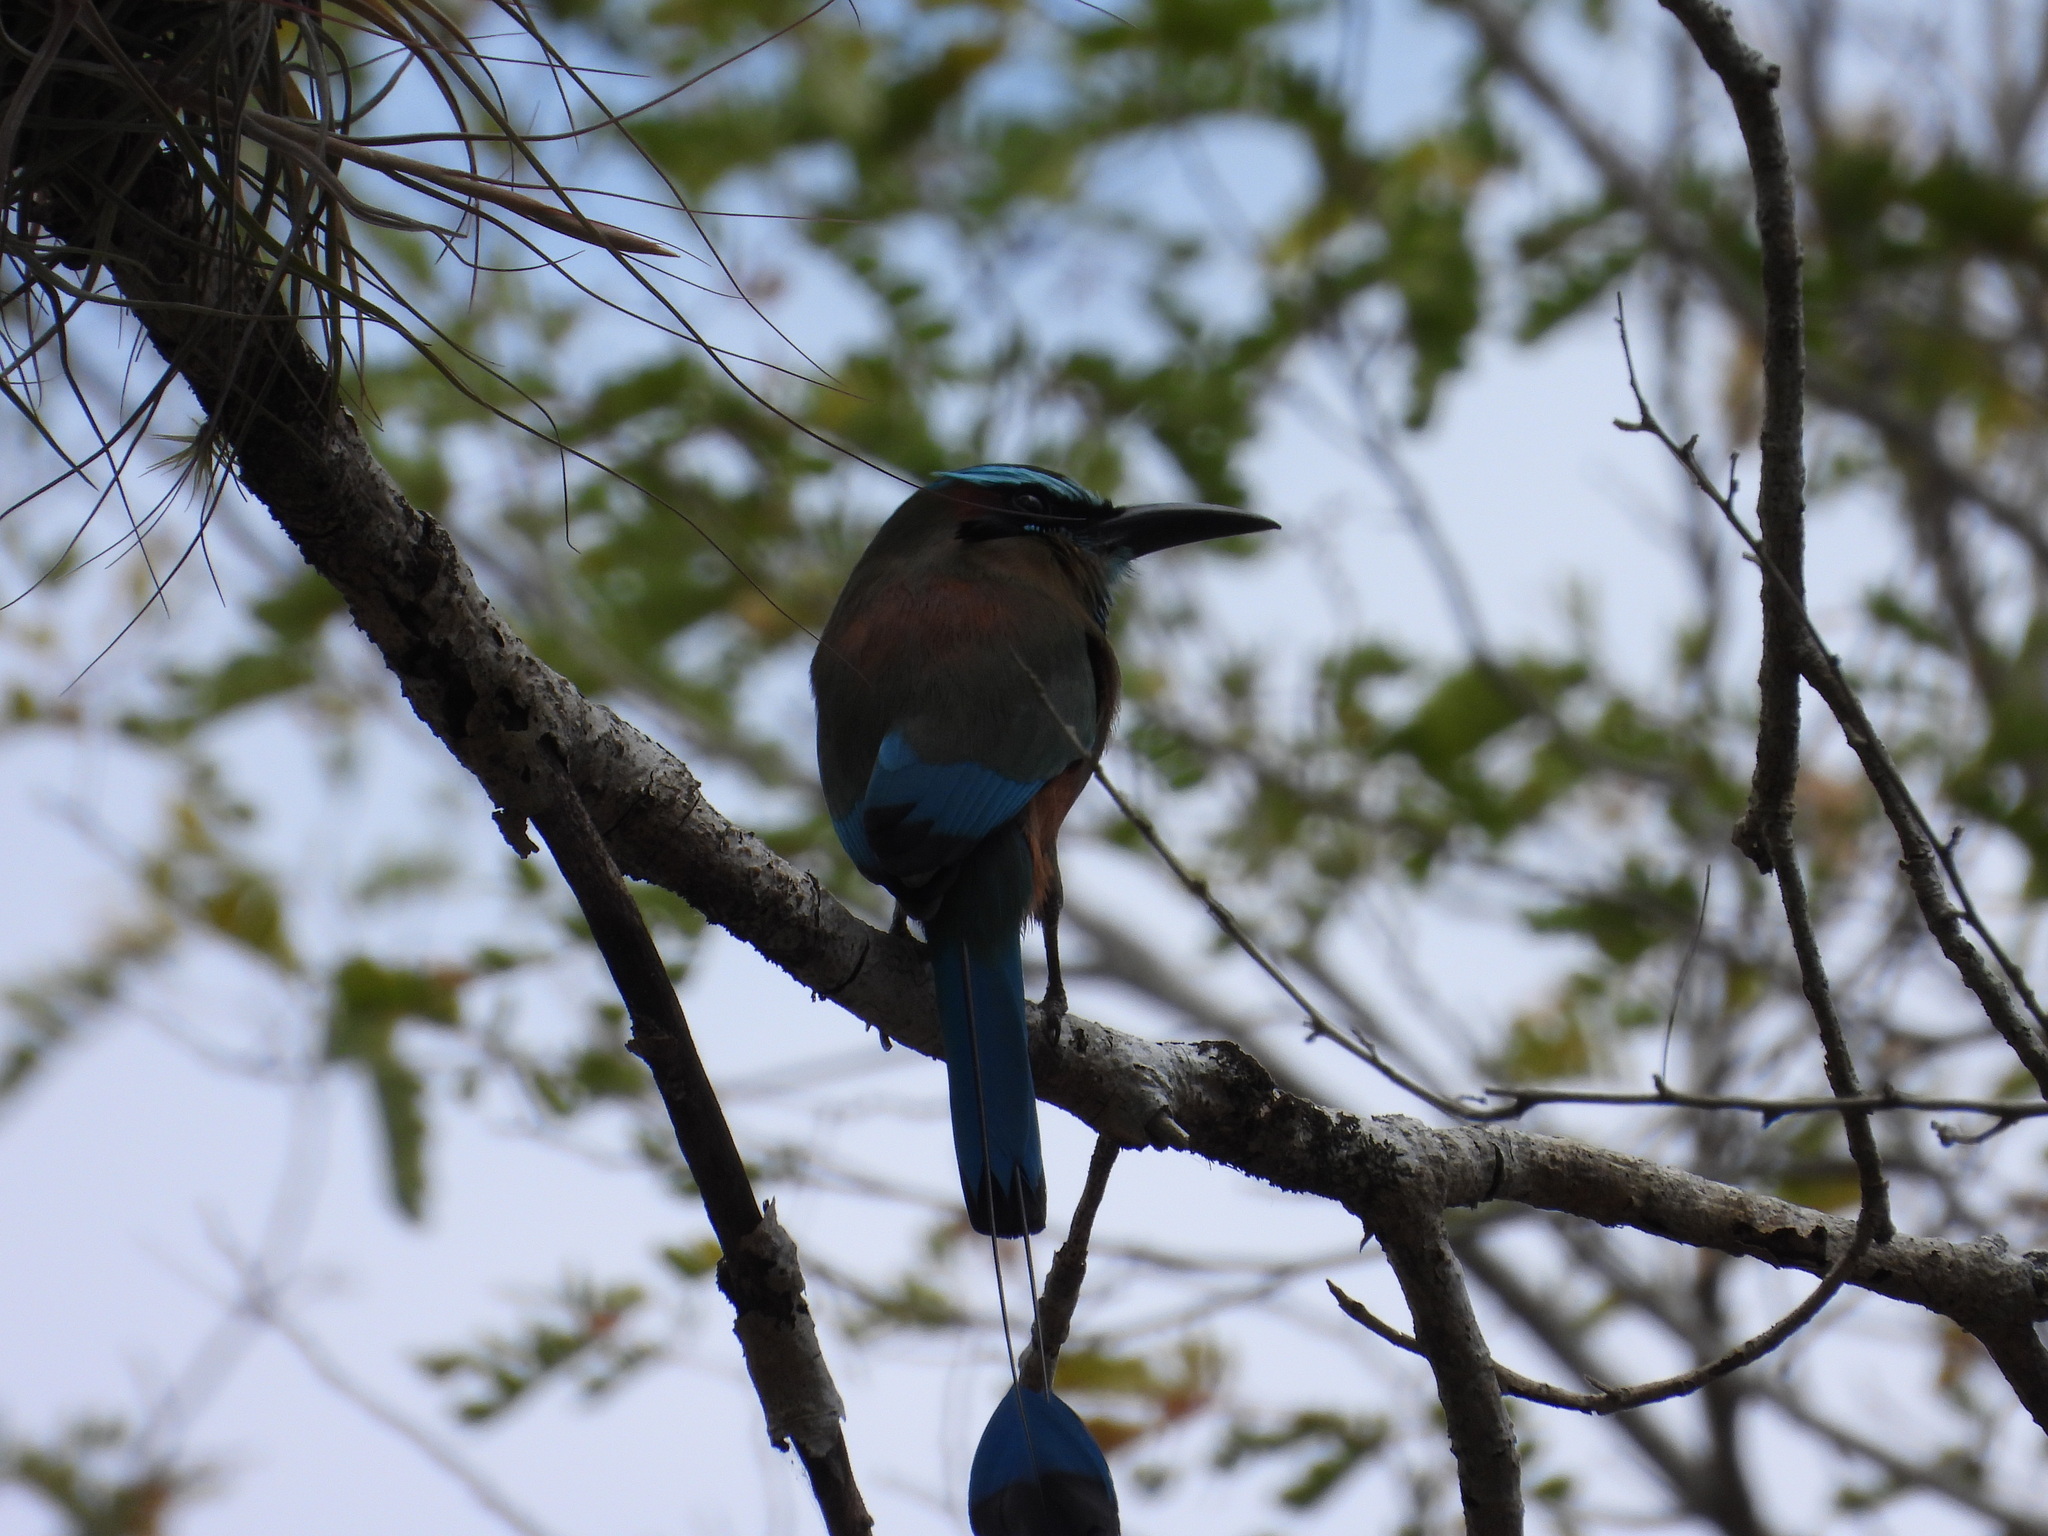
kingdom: Animalia
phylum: Chordata
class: Aves
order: Coraciiformes
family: Momotidae
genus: Eumomota
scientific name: Eumomota superciliosa
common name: Turquoise-browed motmot
